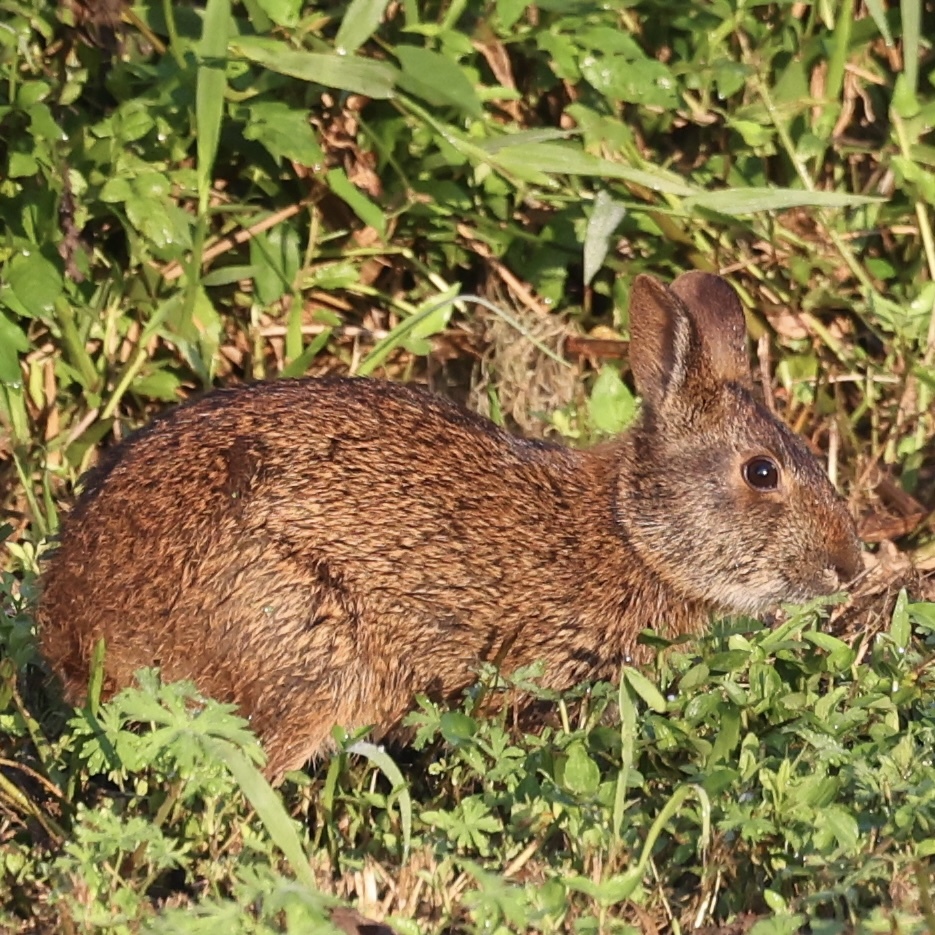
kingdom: Animalia
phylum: Chordata
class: Mammalia
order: Lagomorpha
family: Leporidae
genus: Sylvilagus
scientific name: Sylvilagus palustris
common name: Marsh rabbit
